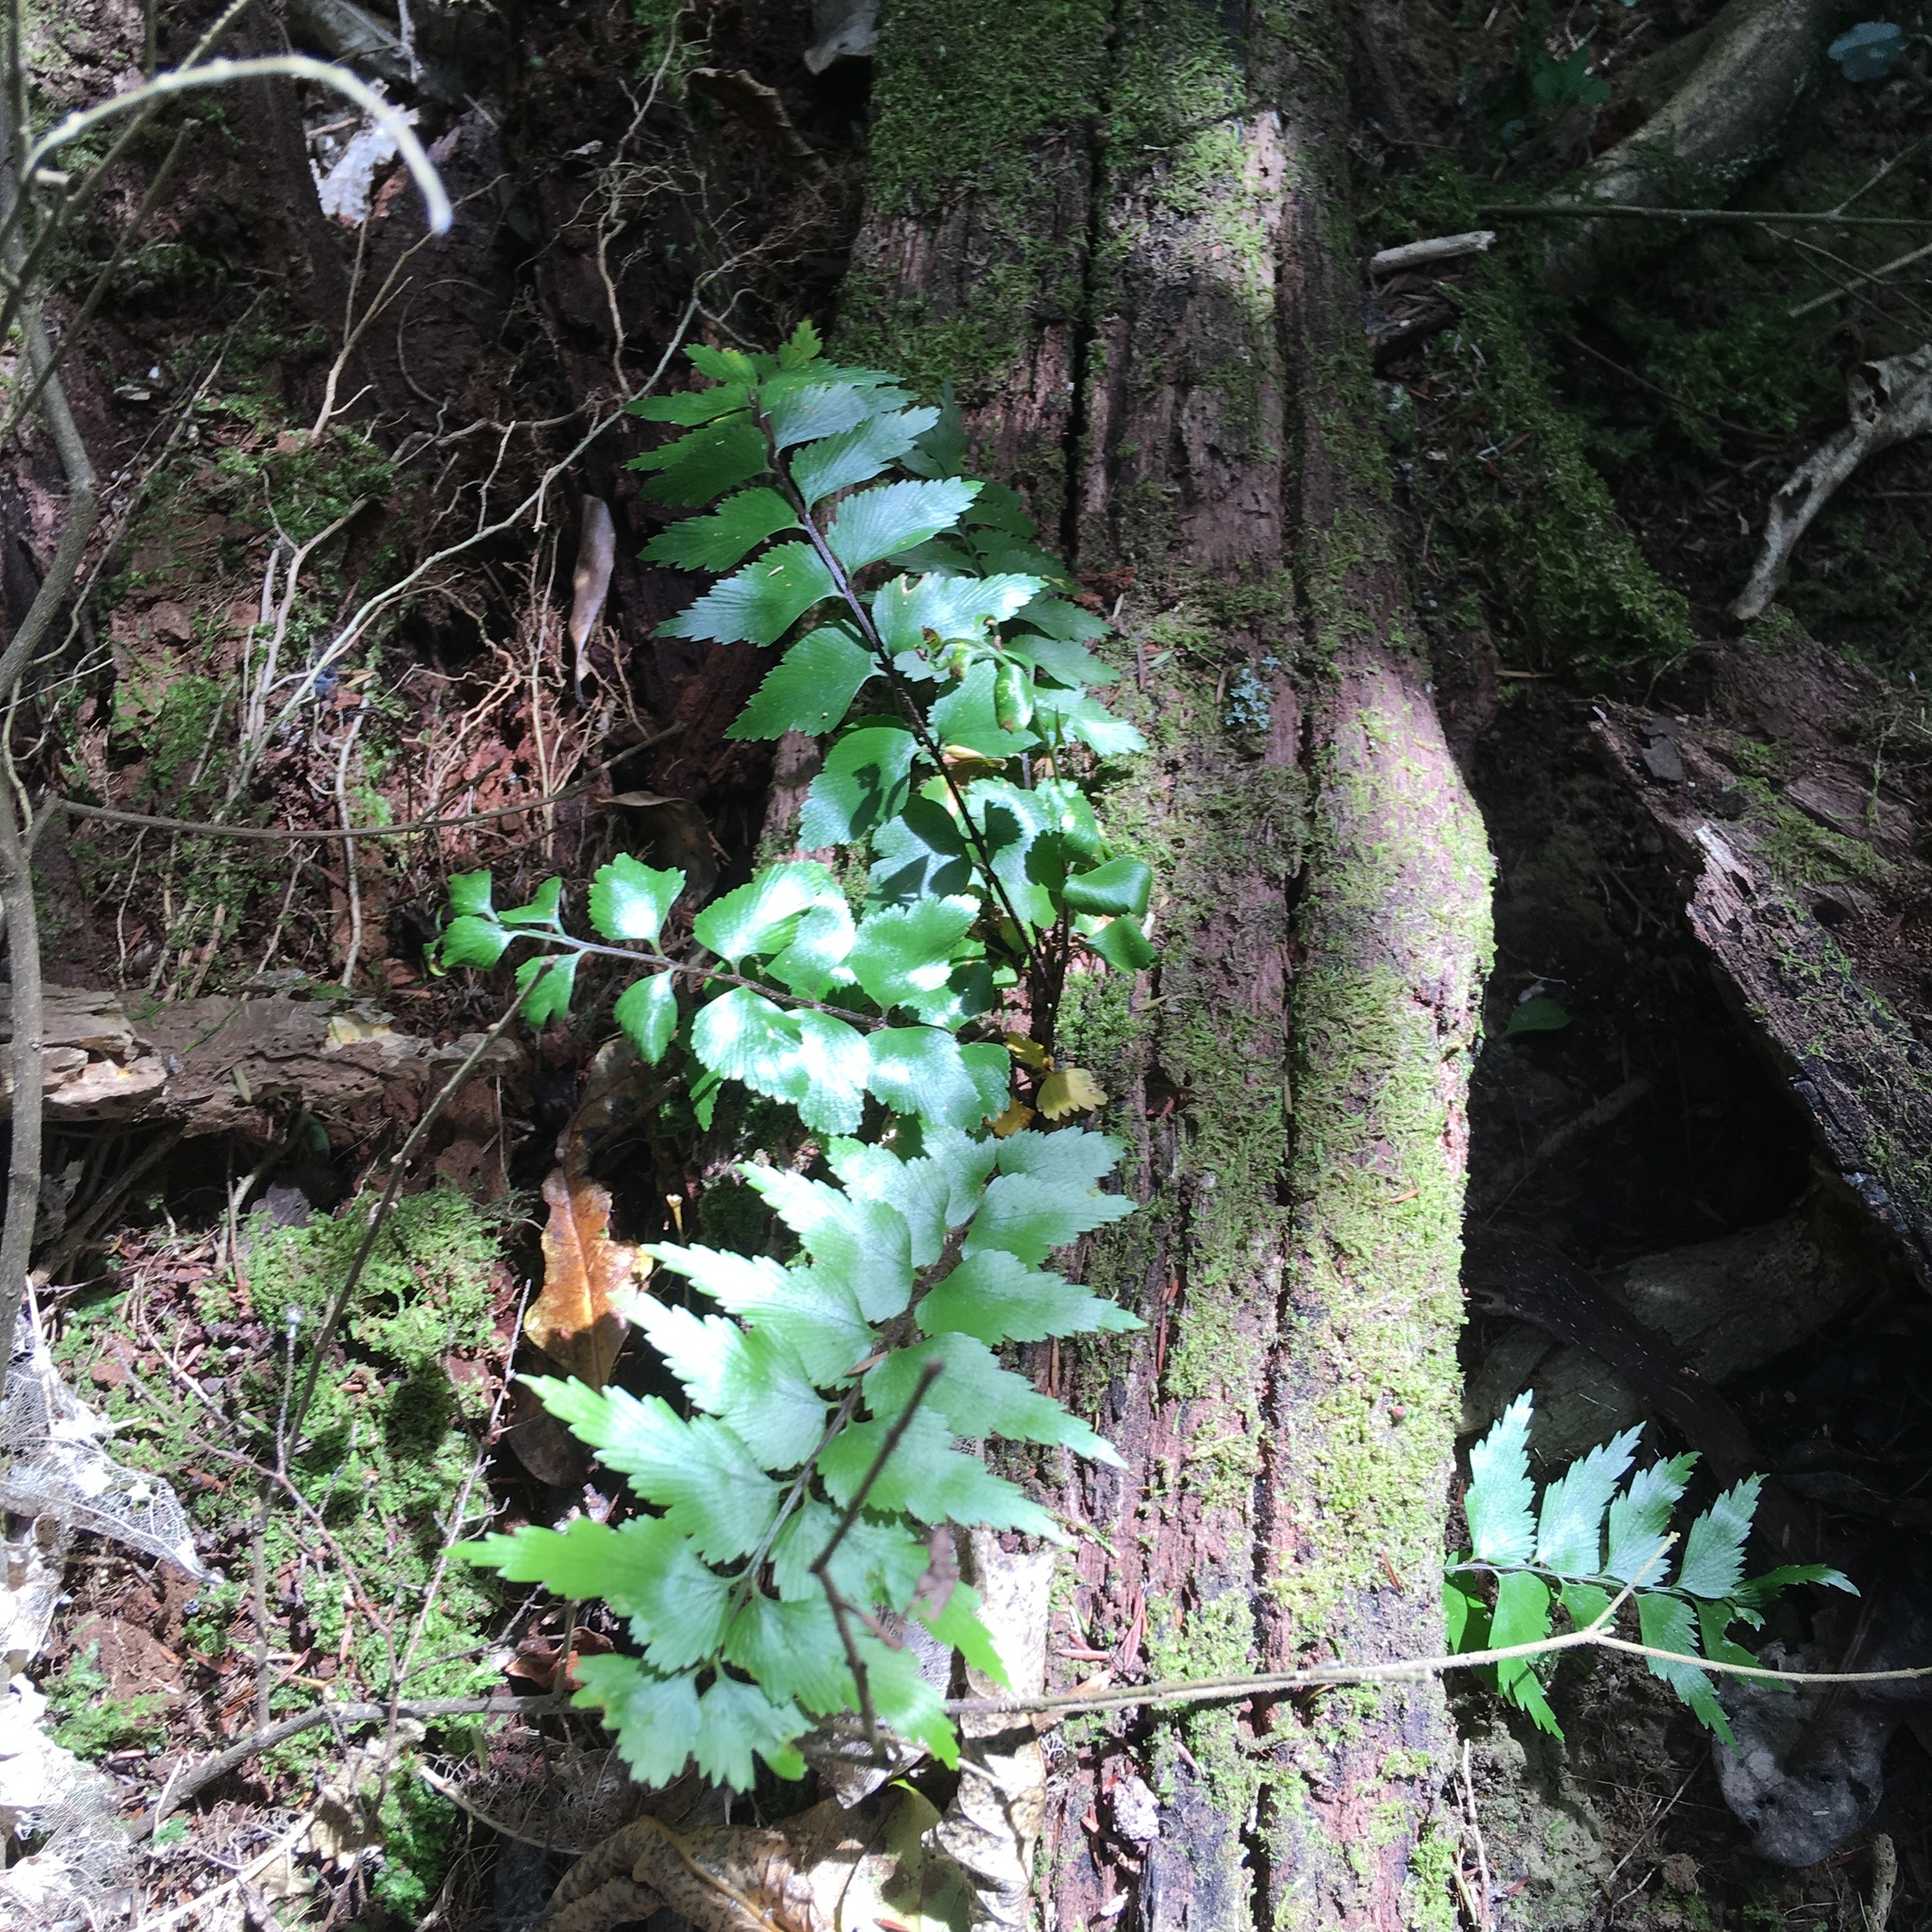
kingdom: Plantae
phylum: Tracheophyta
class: Polypodiopsida
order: Polypodiales
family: Aspleniaceae
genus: Asplenium
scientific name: Asplenium polyodon
